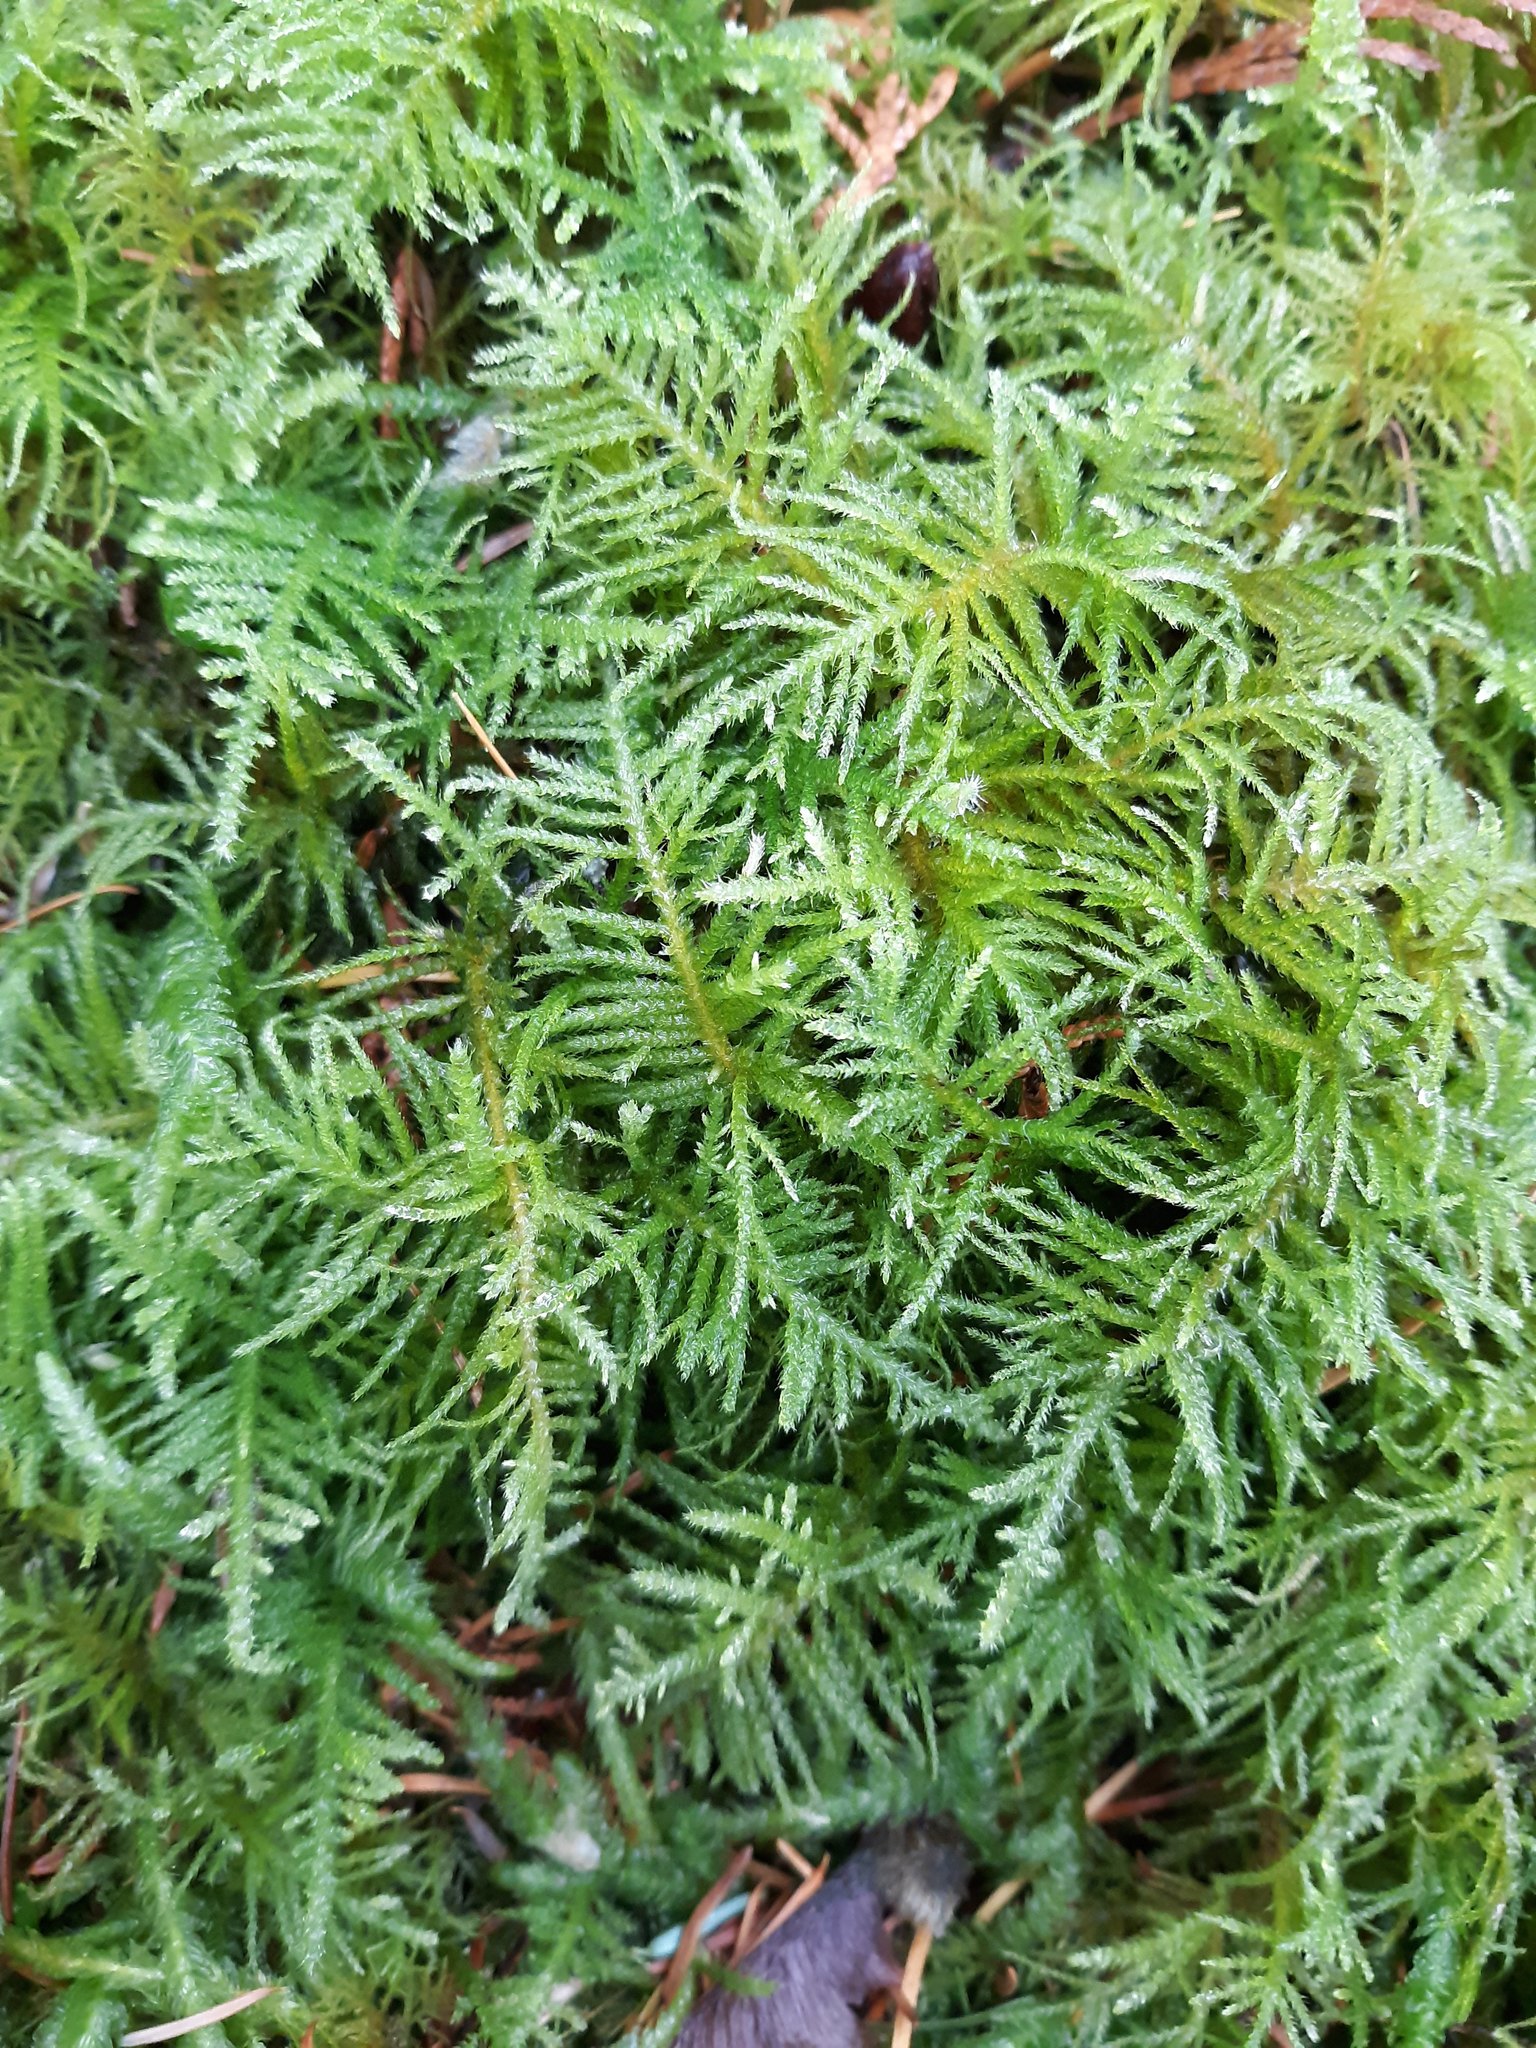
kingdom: Plantae
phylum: Bryophyta
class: Bryopsida
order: Hypnales
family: Brachytheciaceae
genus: Kindbergia
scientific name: Kindbergia oregana
